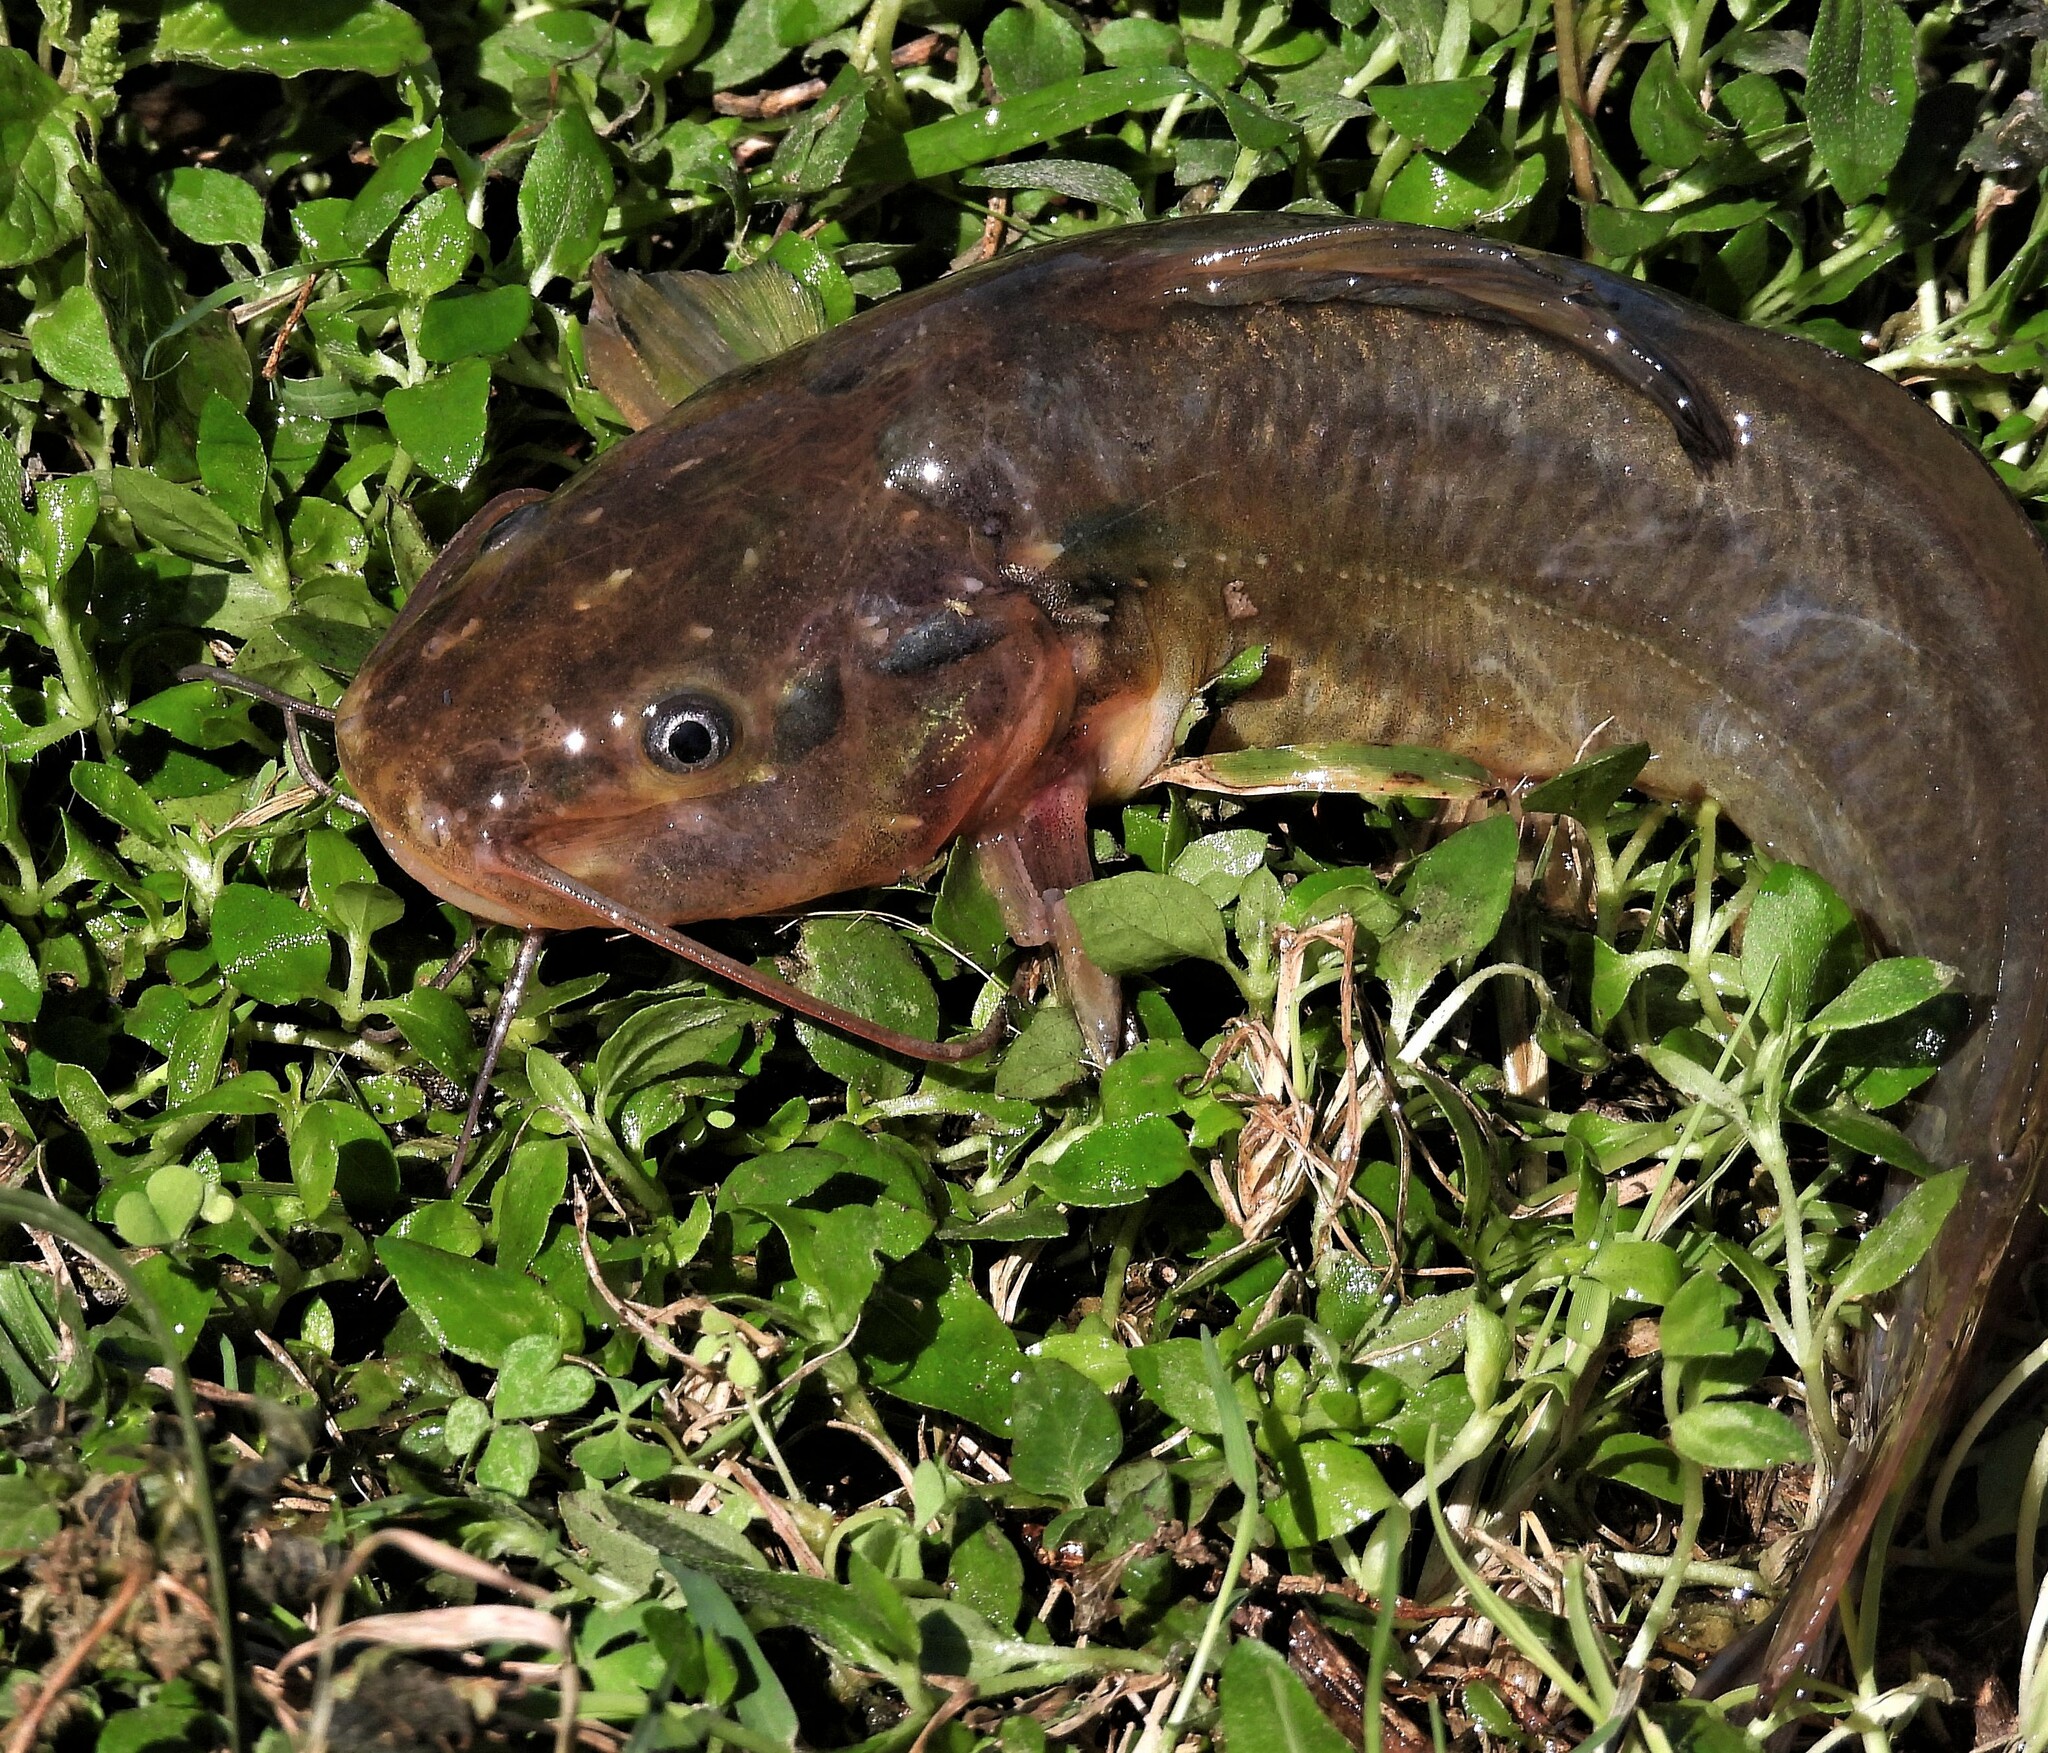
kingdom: Animalia
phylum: Chordata
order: Siluriformes
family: Heptapteridae
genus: Rhamdia
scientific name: Rhamdia quelen
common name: Catfish
